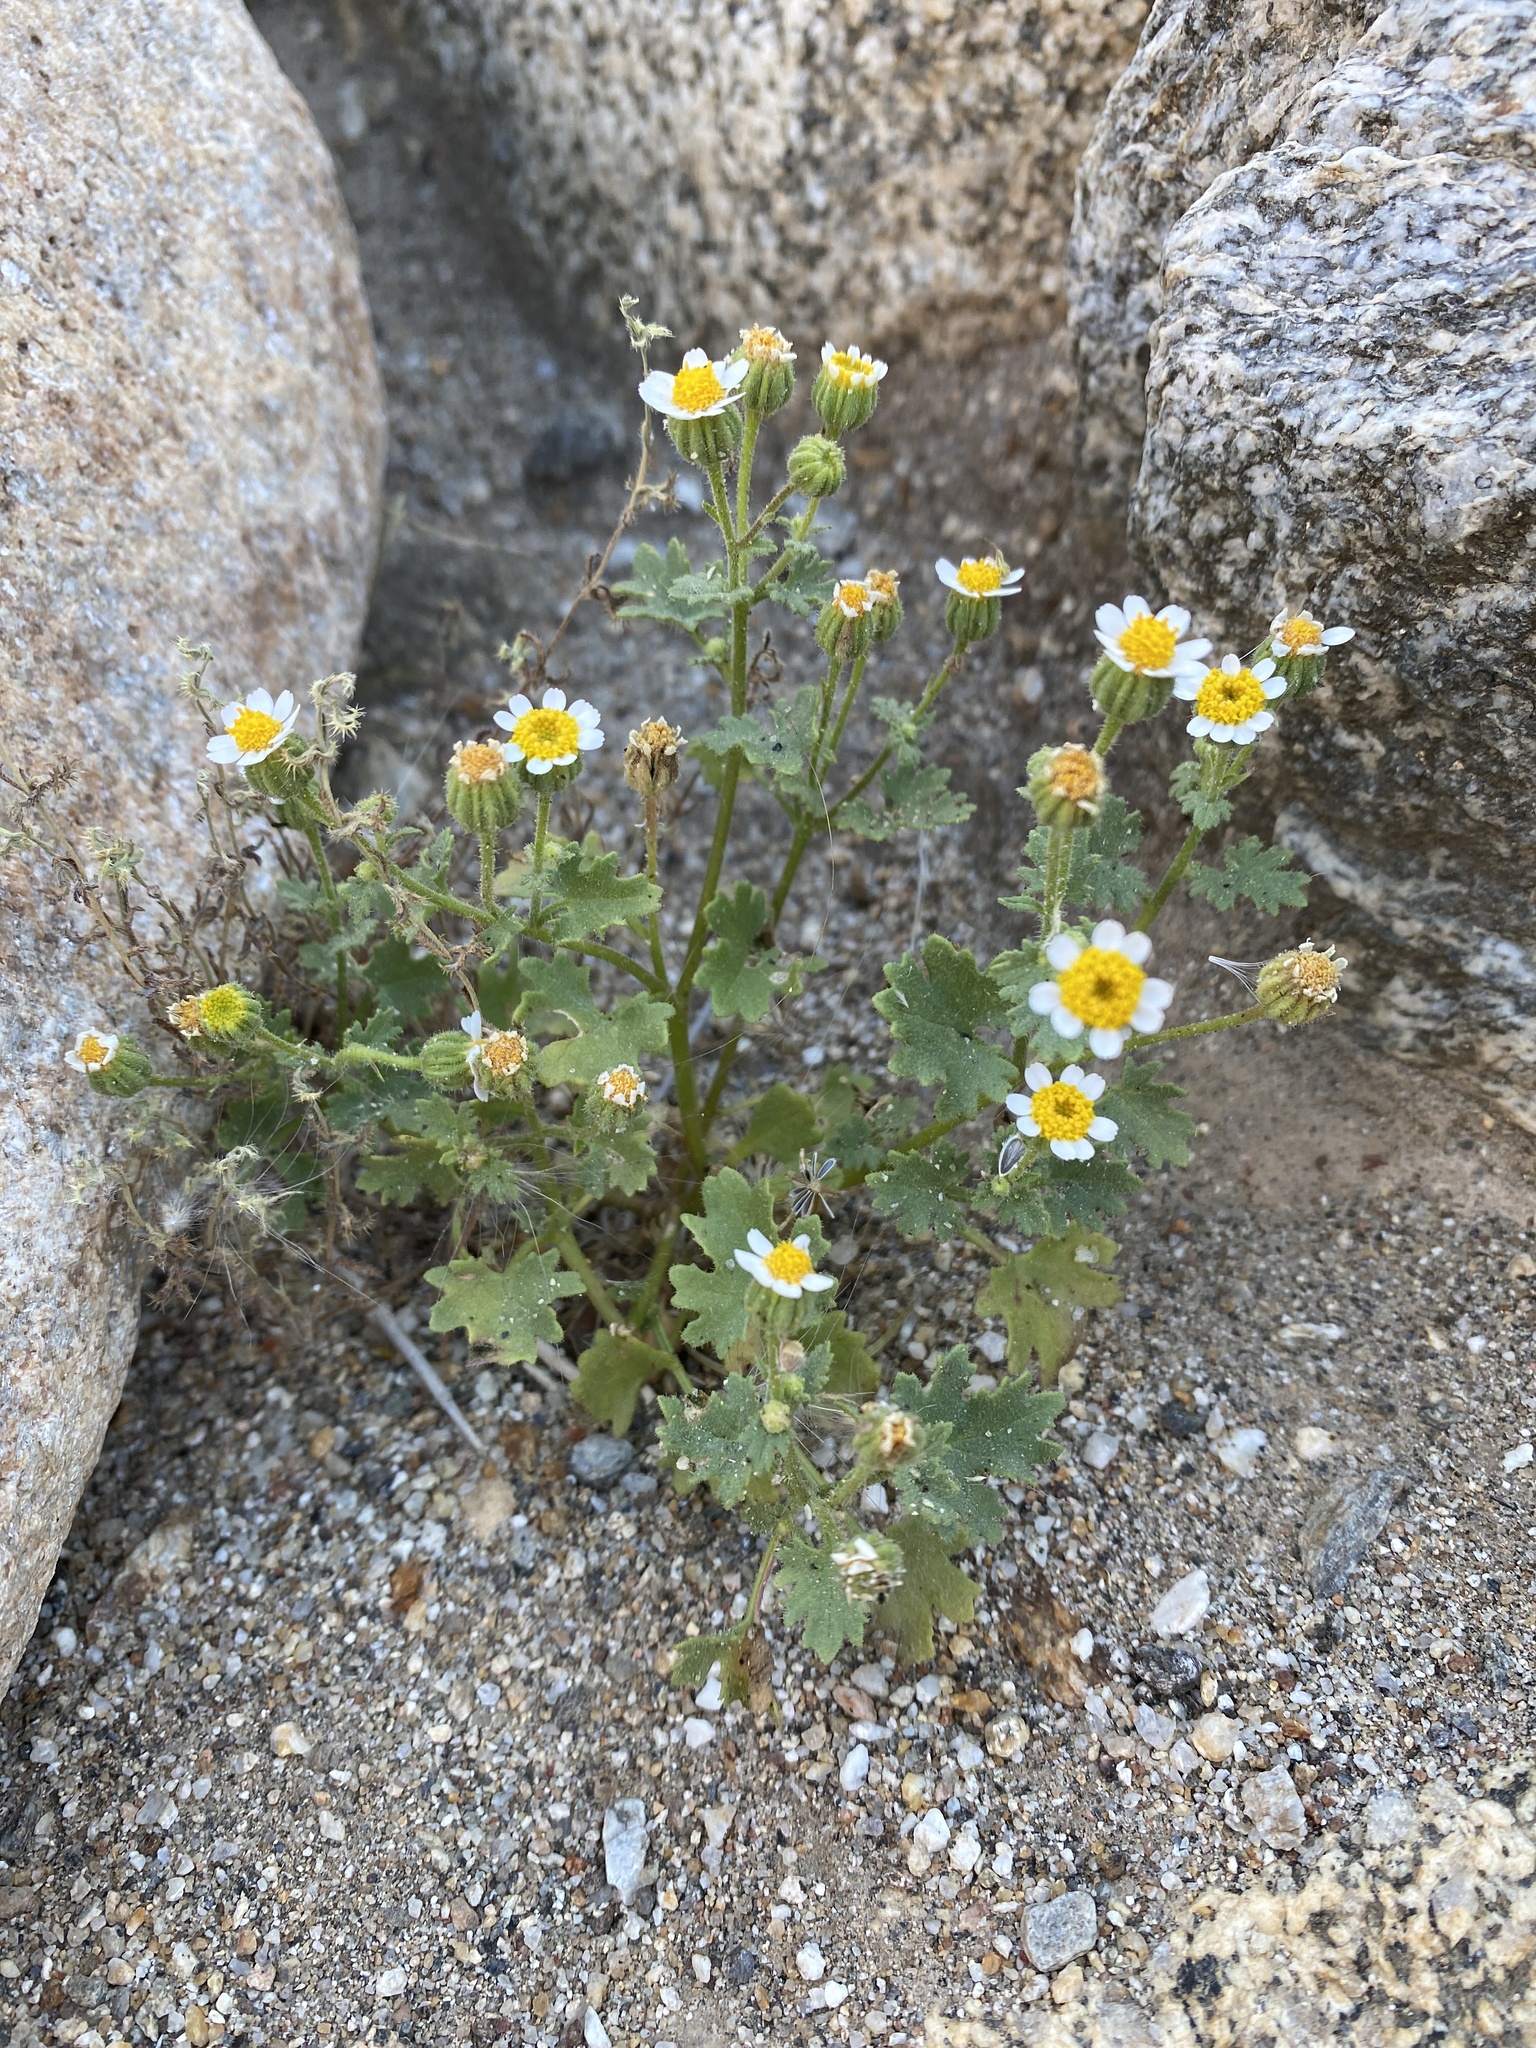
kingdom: Plantae
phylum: Tracheophyta
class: Magnoliopsida
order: Asterales
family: Asteraceae
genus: Laphamia
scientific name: Laphamia emoryi
